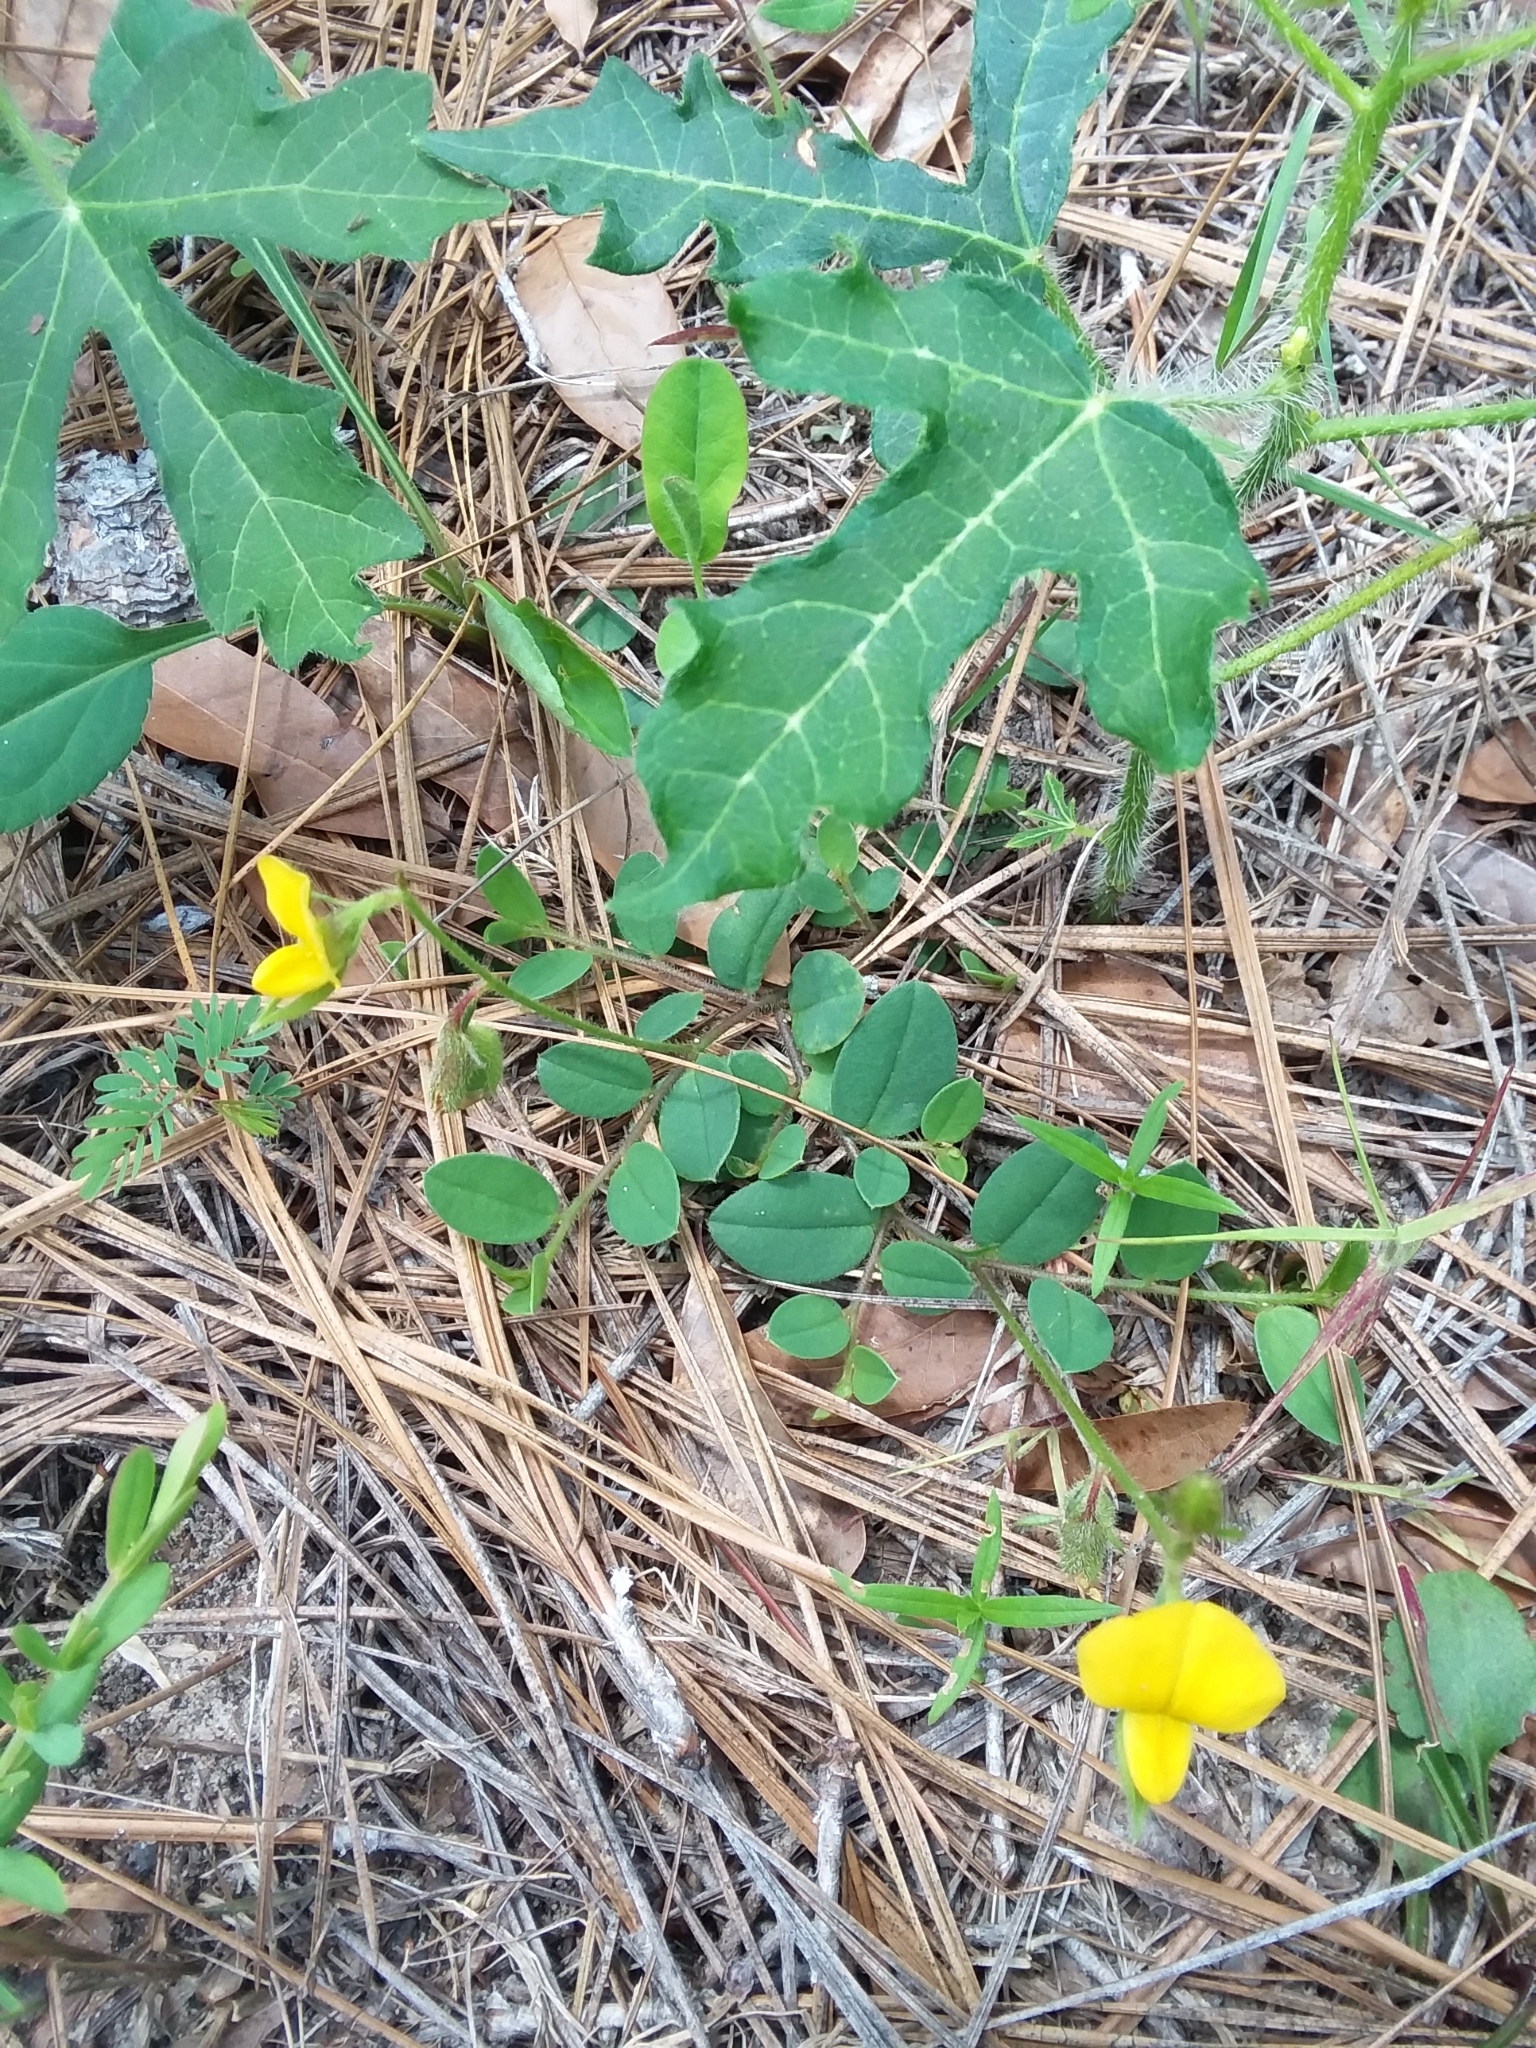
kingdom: Plantae
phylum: Tracheophyta
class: Magnoliopsida
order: Fabales
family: Fabaceae
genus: Crotalaria
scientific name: Crotalaria rotundifolia
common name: Prostrate rattlebox
